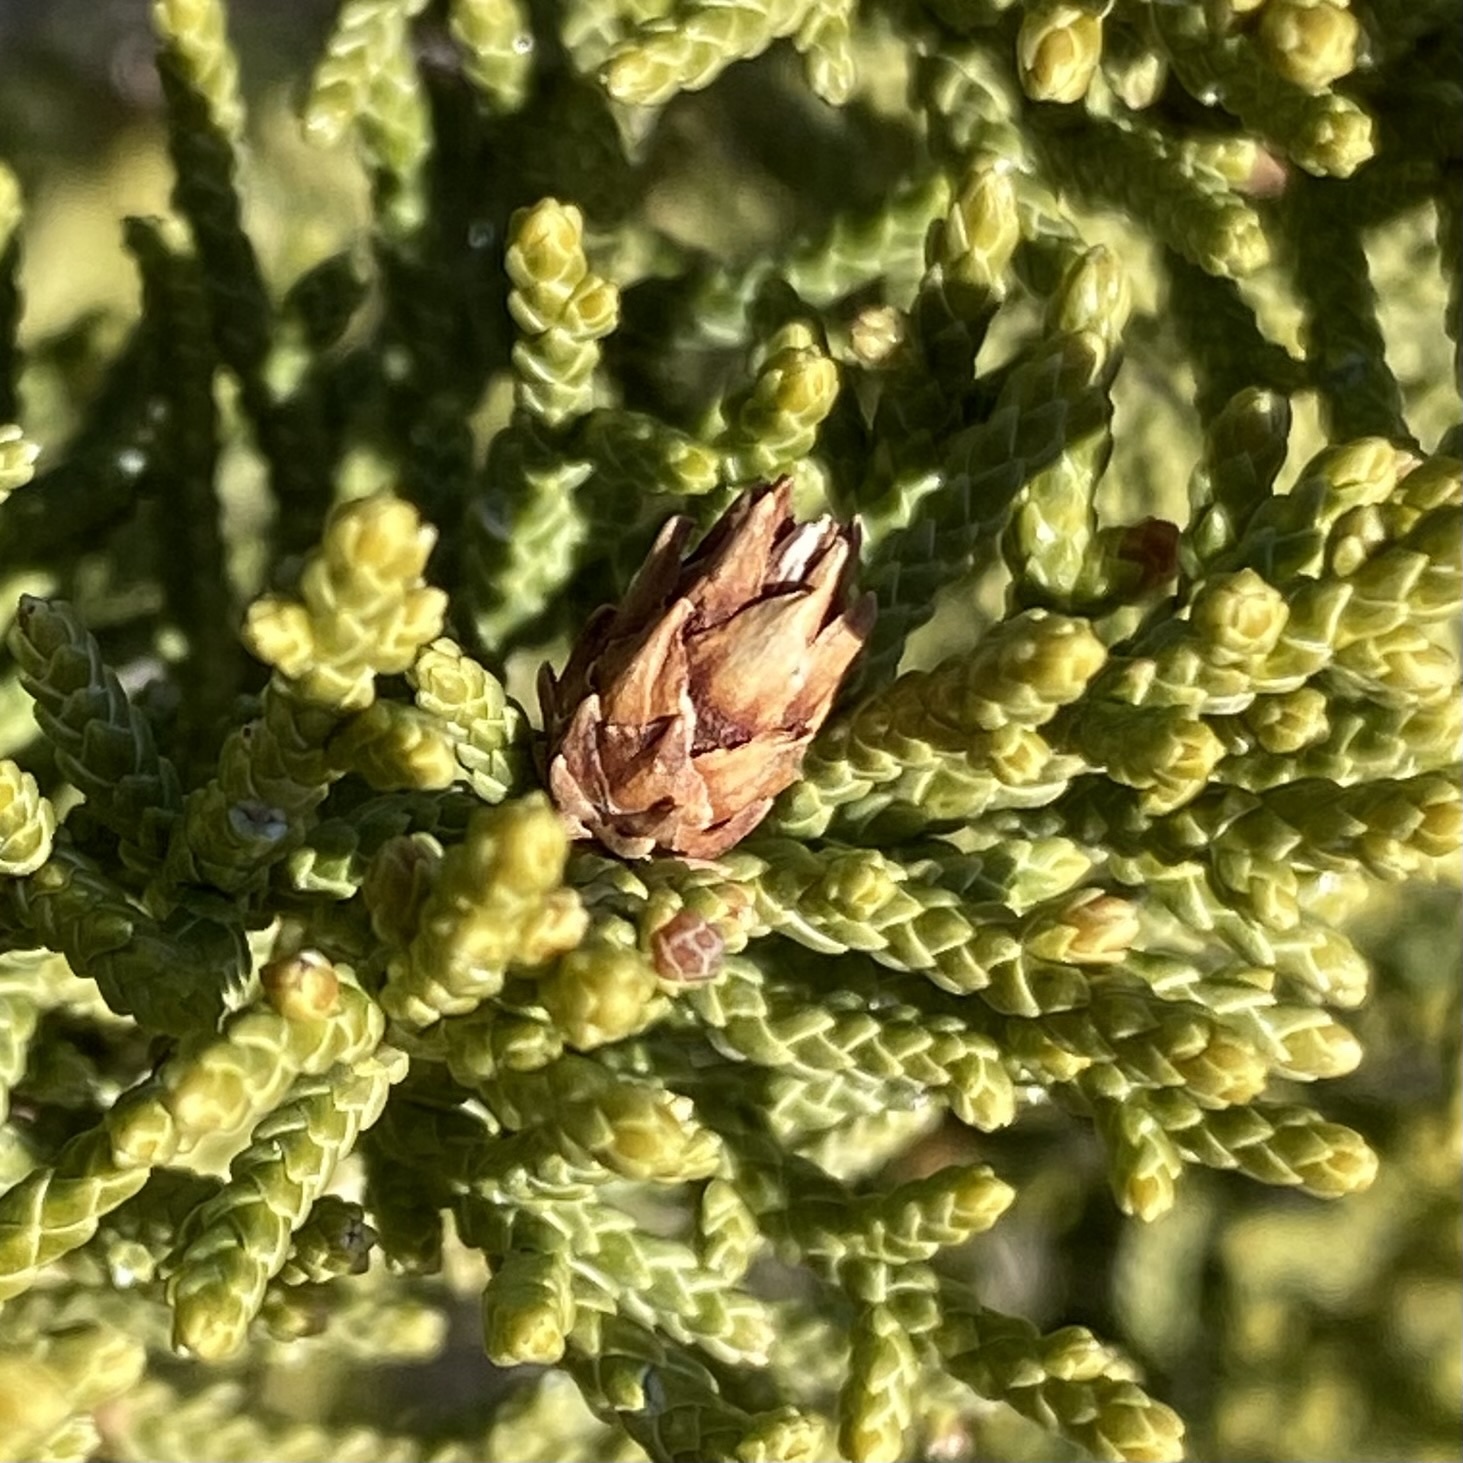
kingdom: Animalia
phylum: Arthropoda
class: Insecta
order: Diptera
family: Cecidomyiidae
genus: Walshomyia
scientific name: Walshomyia
